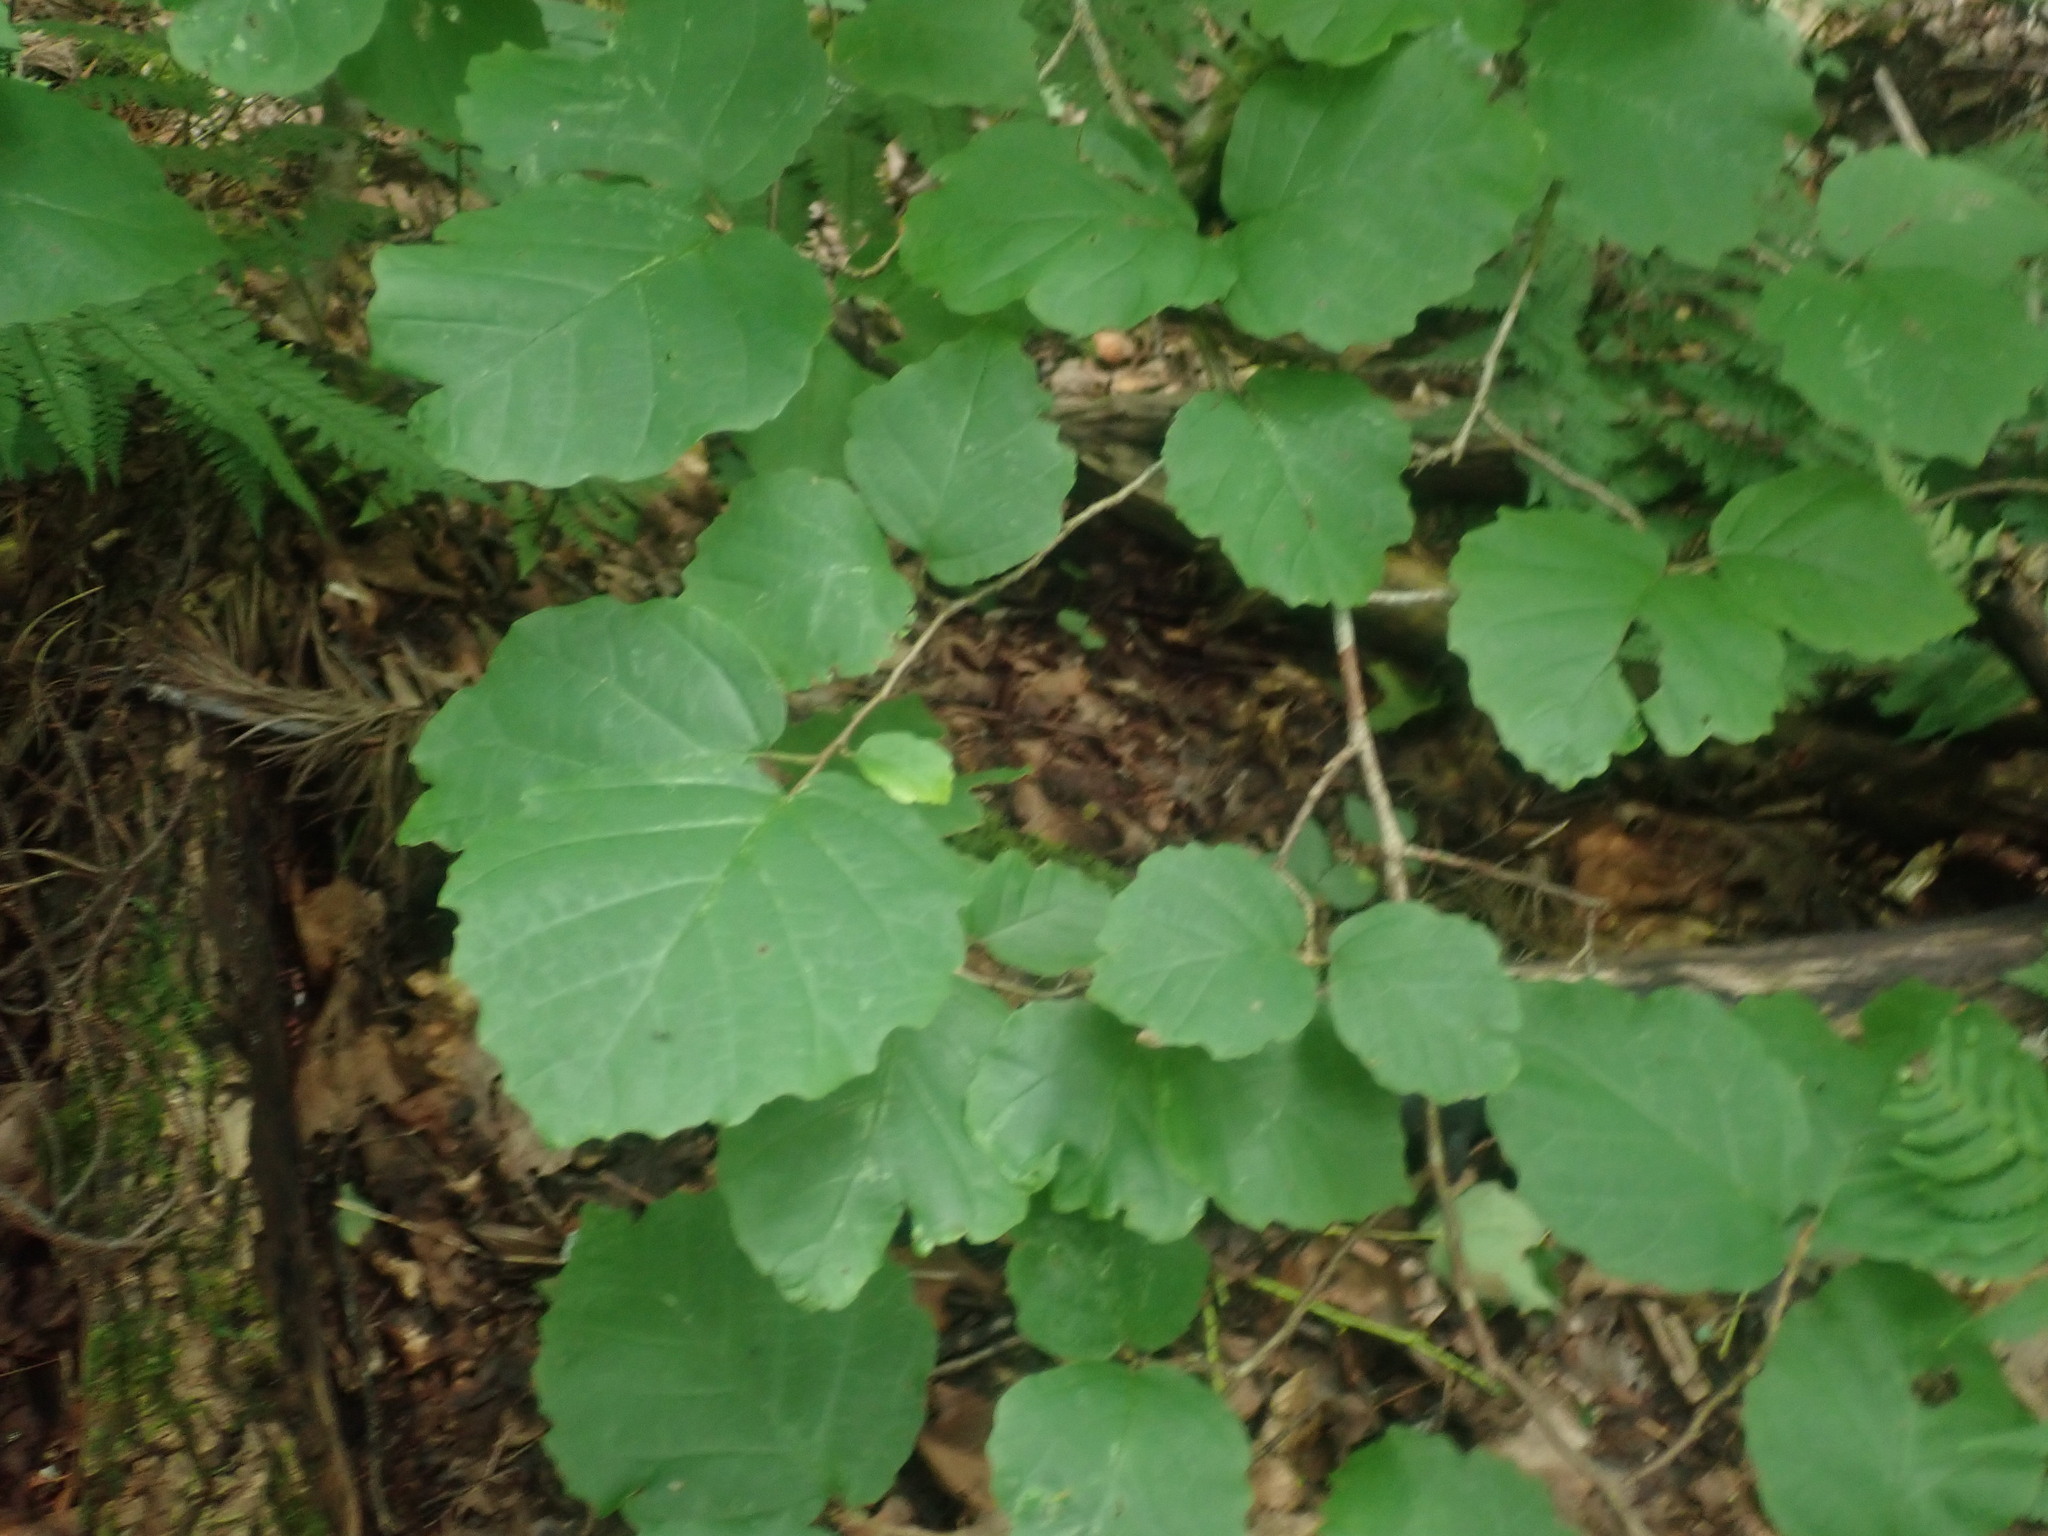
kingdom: Plantae
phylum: Tracheophyta
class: Magnoliopsida
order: Saxifragales
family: Hamamelidaceae
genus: Hamamelis
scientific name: Hamamelis virginiana
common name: Witch-hazel
